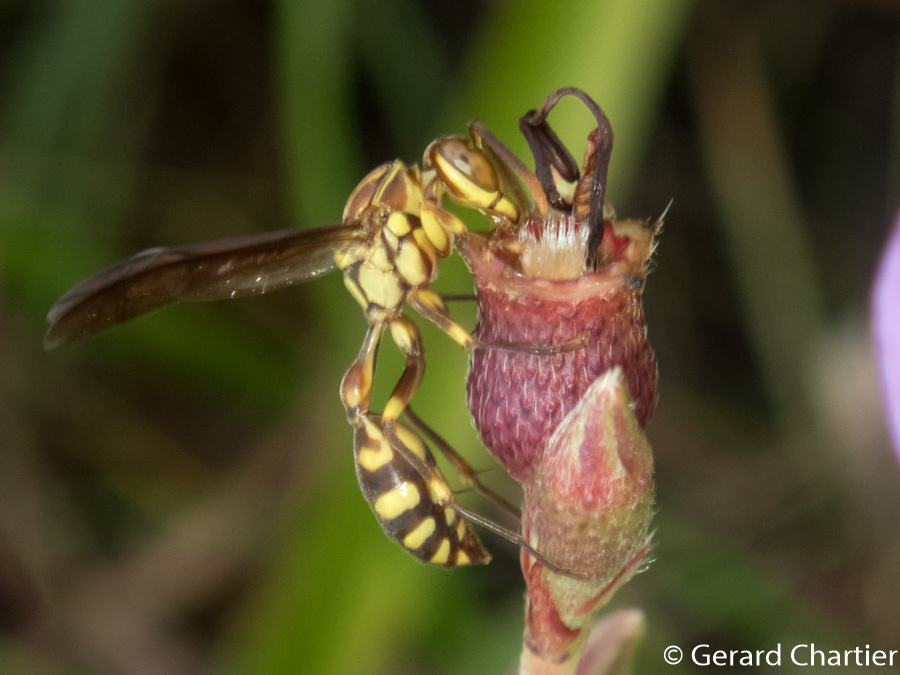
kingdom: Animalia
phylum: Arthropoda
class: Insecta
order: Hymenoptera
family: Vespidae
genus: Parapolybia
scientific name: Parapolybia varia
